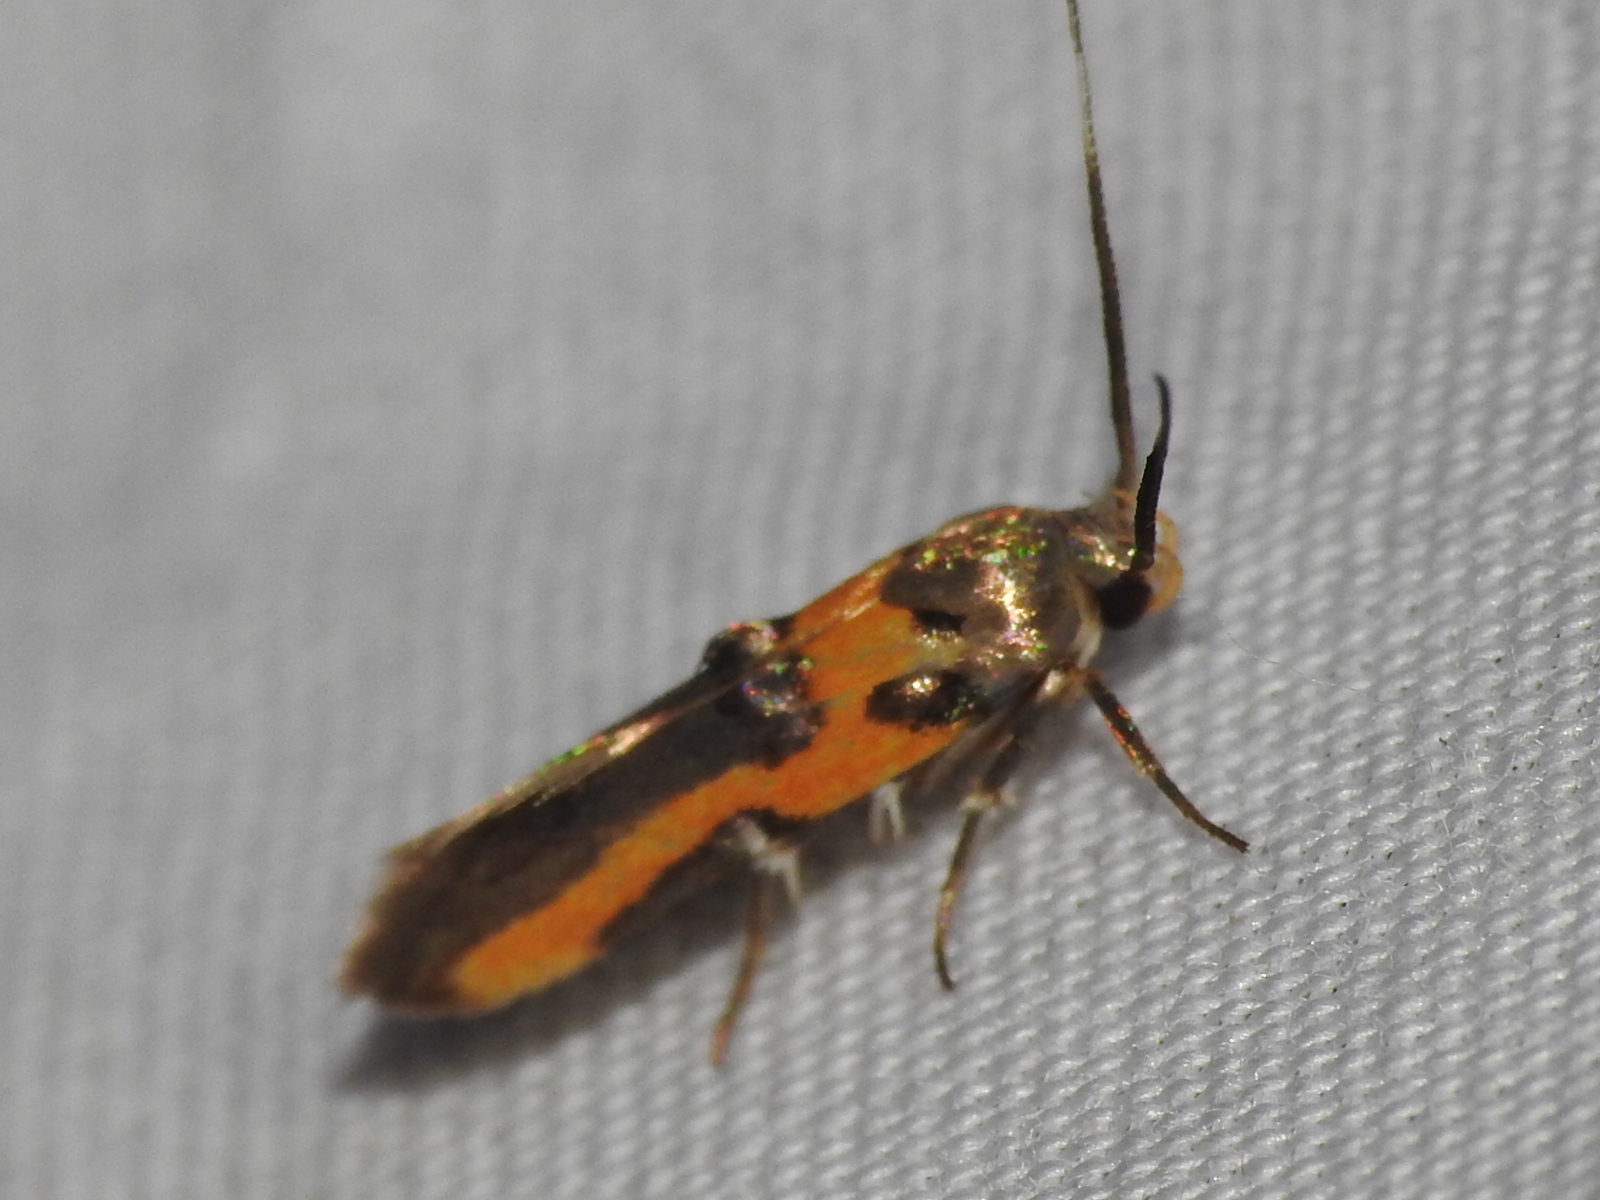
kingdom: Animalia
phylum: Arthropoda
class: Insecta
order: Lepidoptera
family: Cosmopterigidae
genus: Euclemensia
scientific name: Euclemensia bassettella
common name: Kermes scale moth
